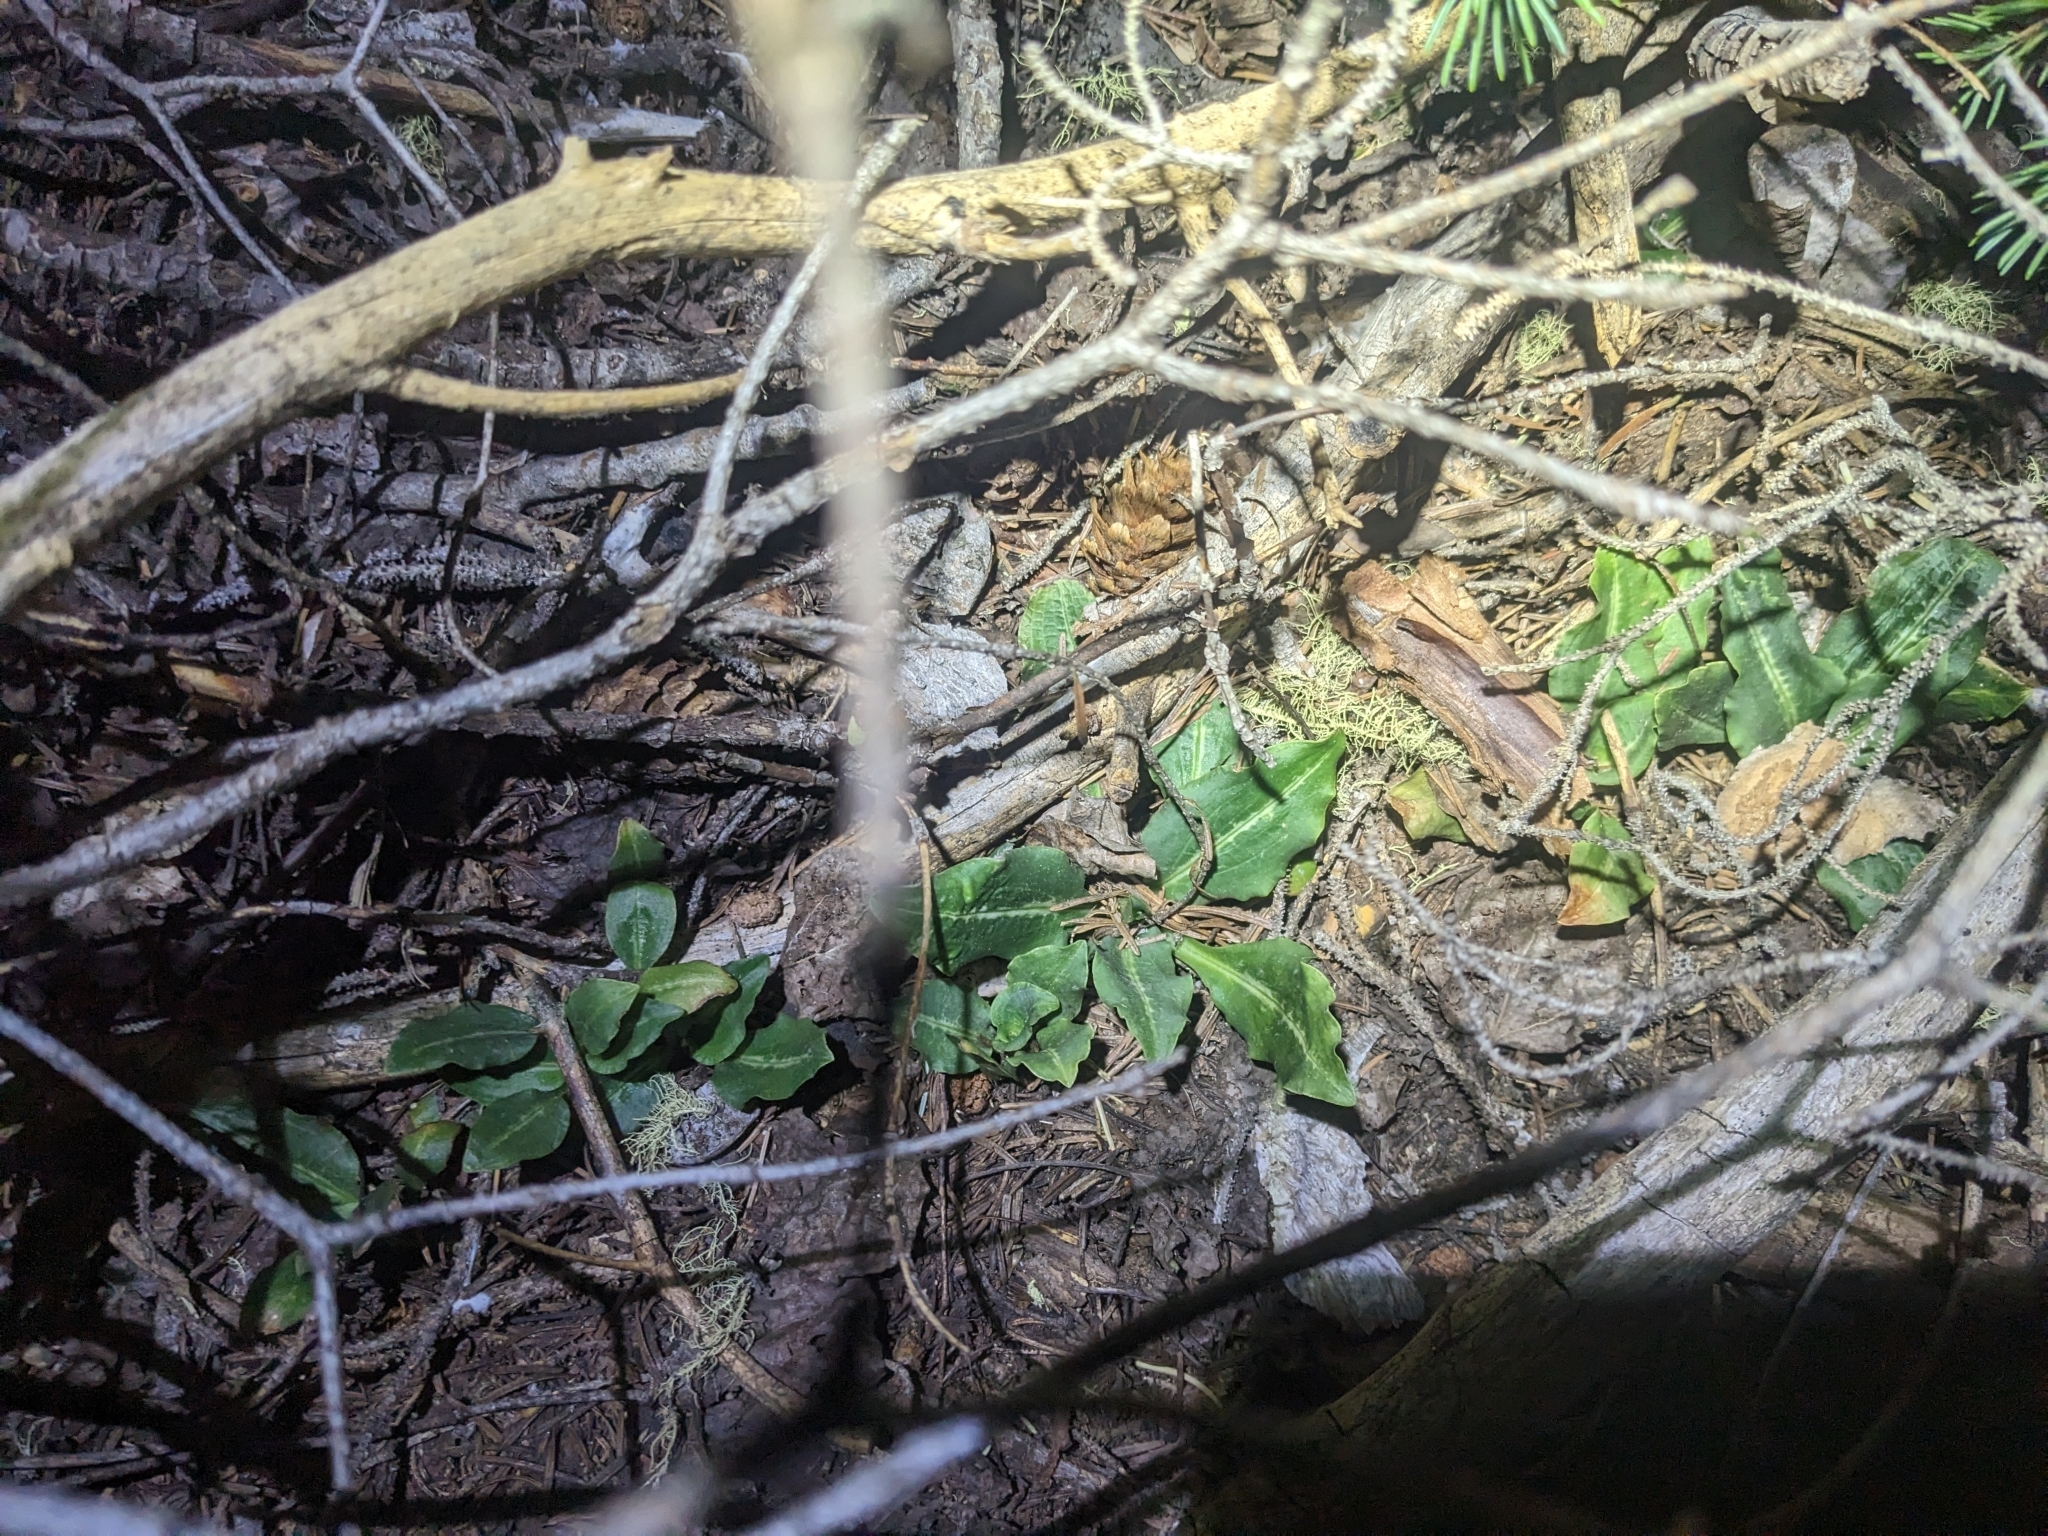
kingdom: Plantae
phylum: Tracheophyta
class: Liliopsida
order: Asparagales
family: Orchidaceae
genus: Goodyera
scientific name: Goodyera oblongifolia
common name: Giant rattlesnake-plantain
